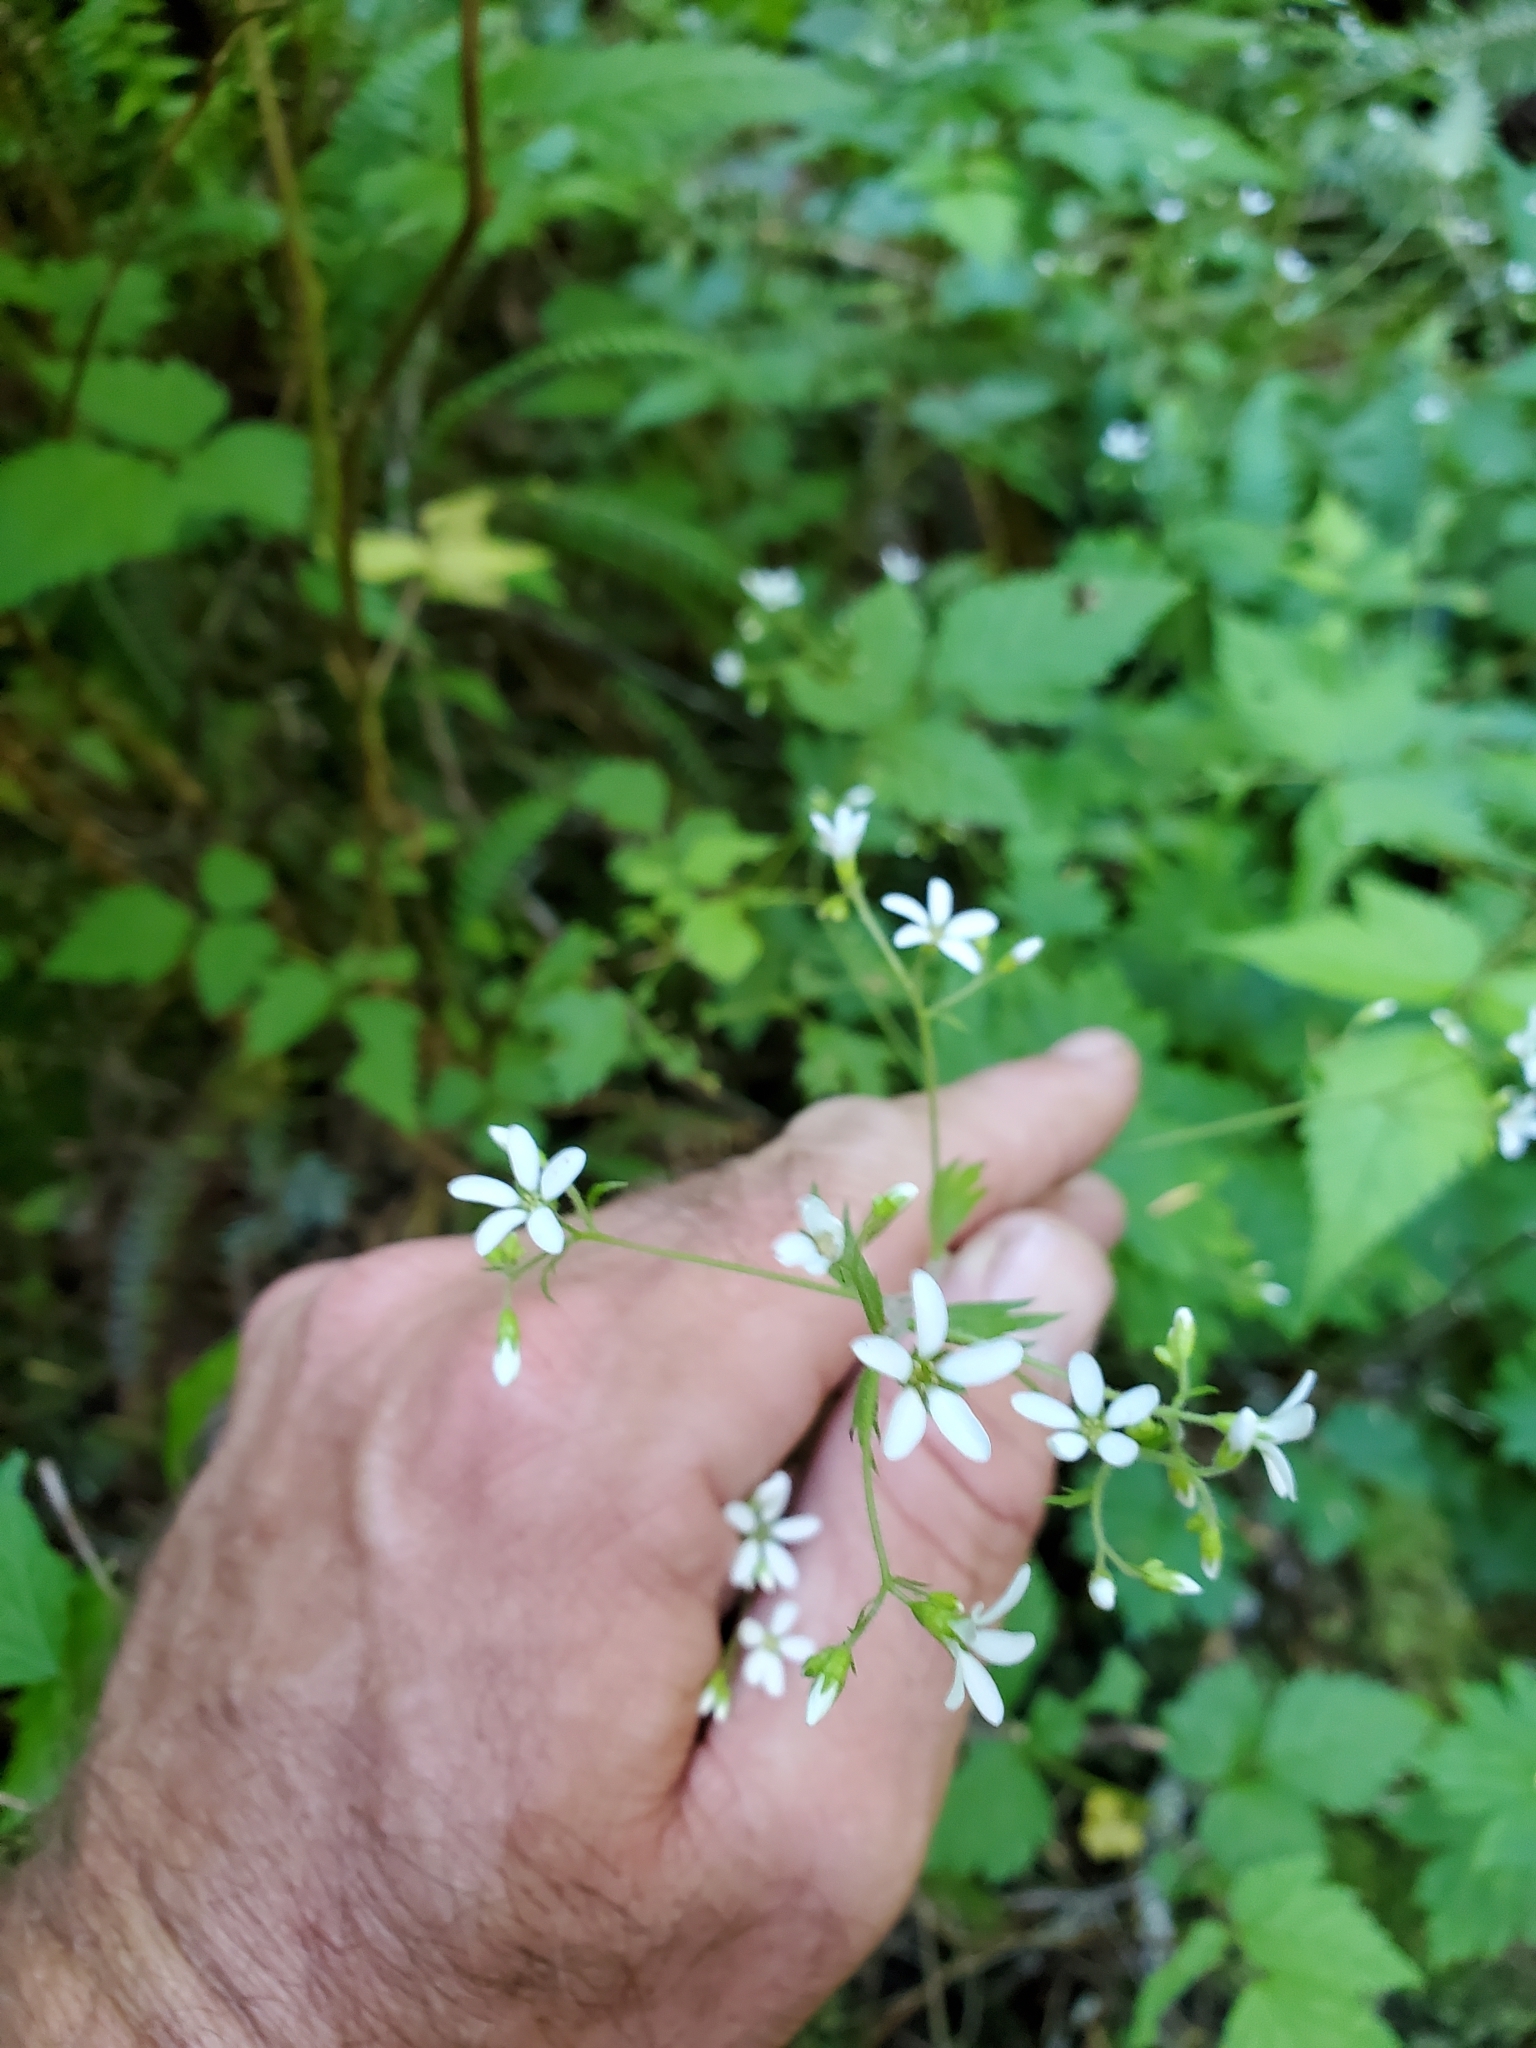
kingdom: Plantae
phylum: Tracheophyta
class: Magnoliopsida
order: Saxifragales
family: Saxifragaceae
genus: Boykinia
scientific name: Boykinia occidentalis
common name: Coast boykinia
